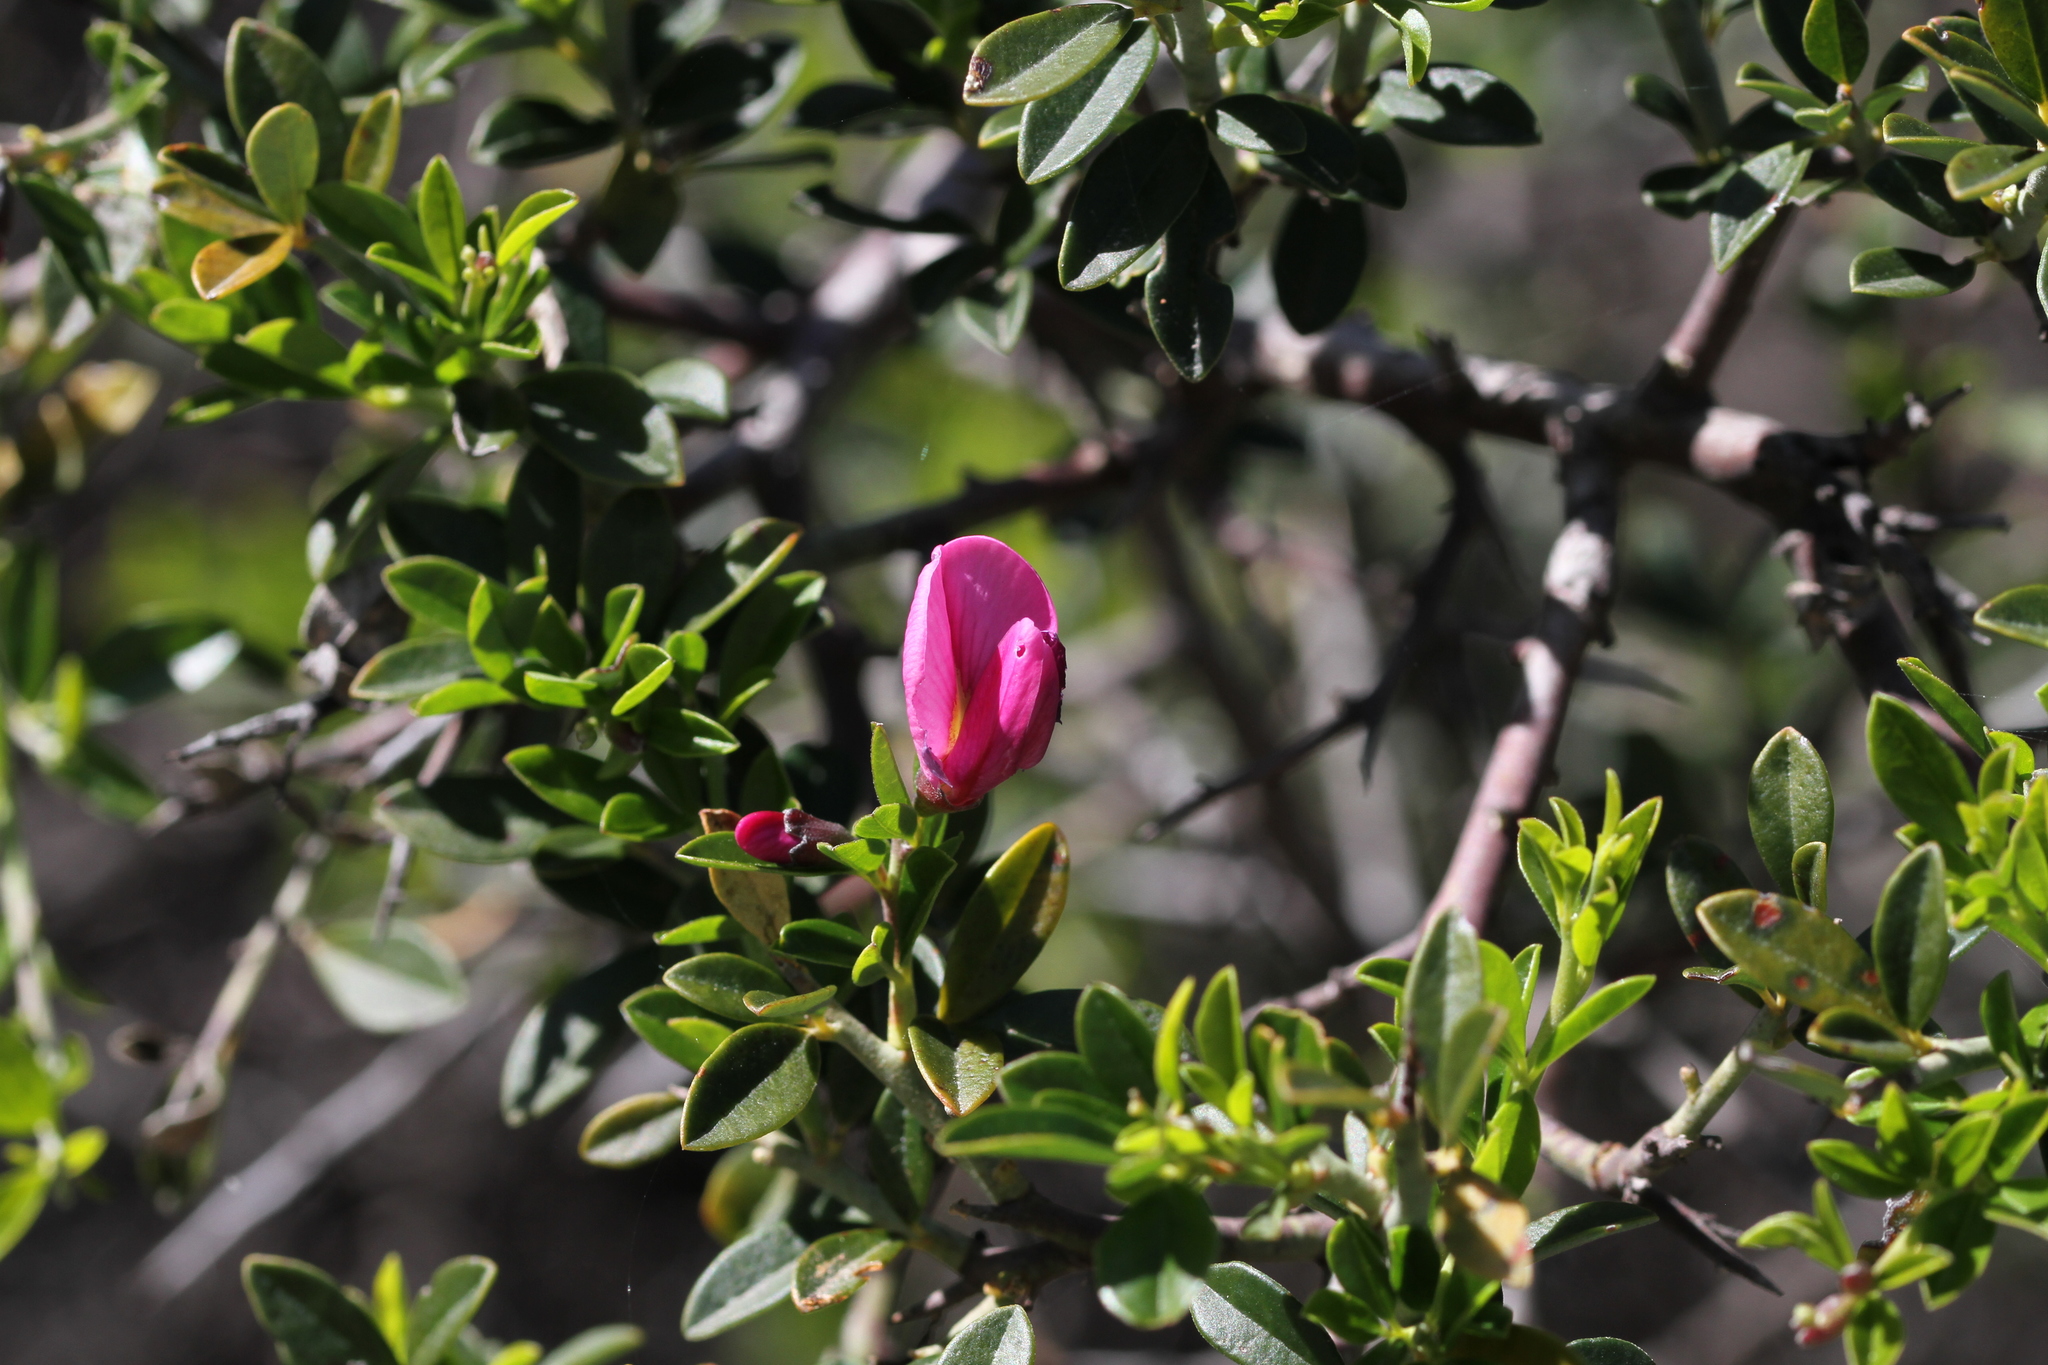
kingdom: Plantae
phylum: Tracheophyta
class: Magnoliopsida
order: Fabales
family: Fabaceae
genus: Pickeringia
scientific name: Pickeringia montana
